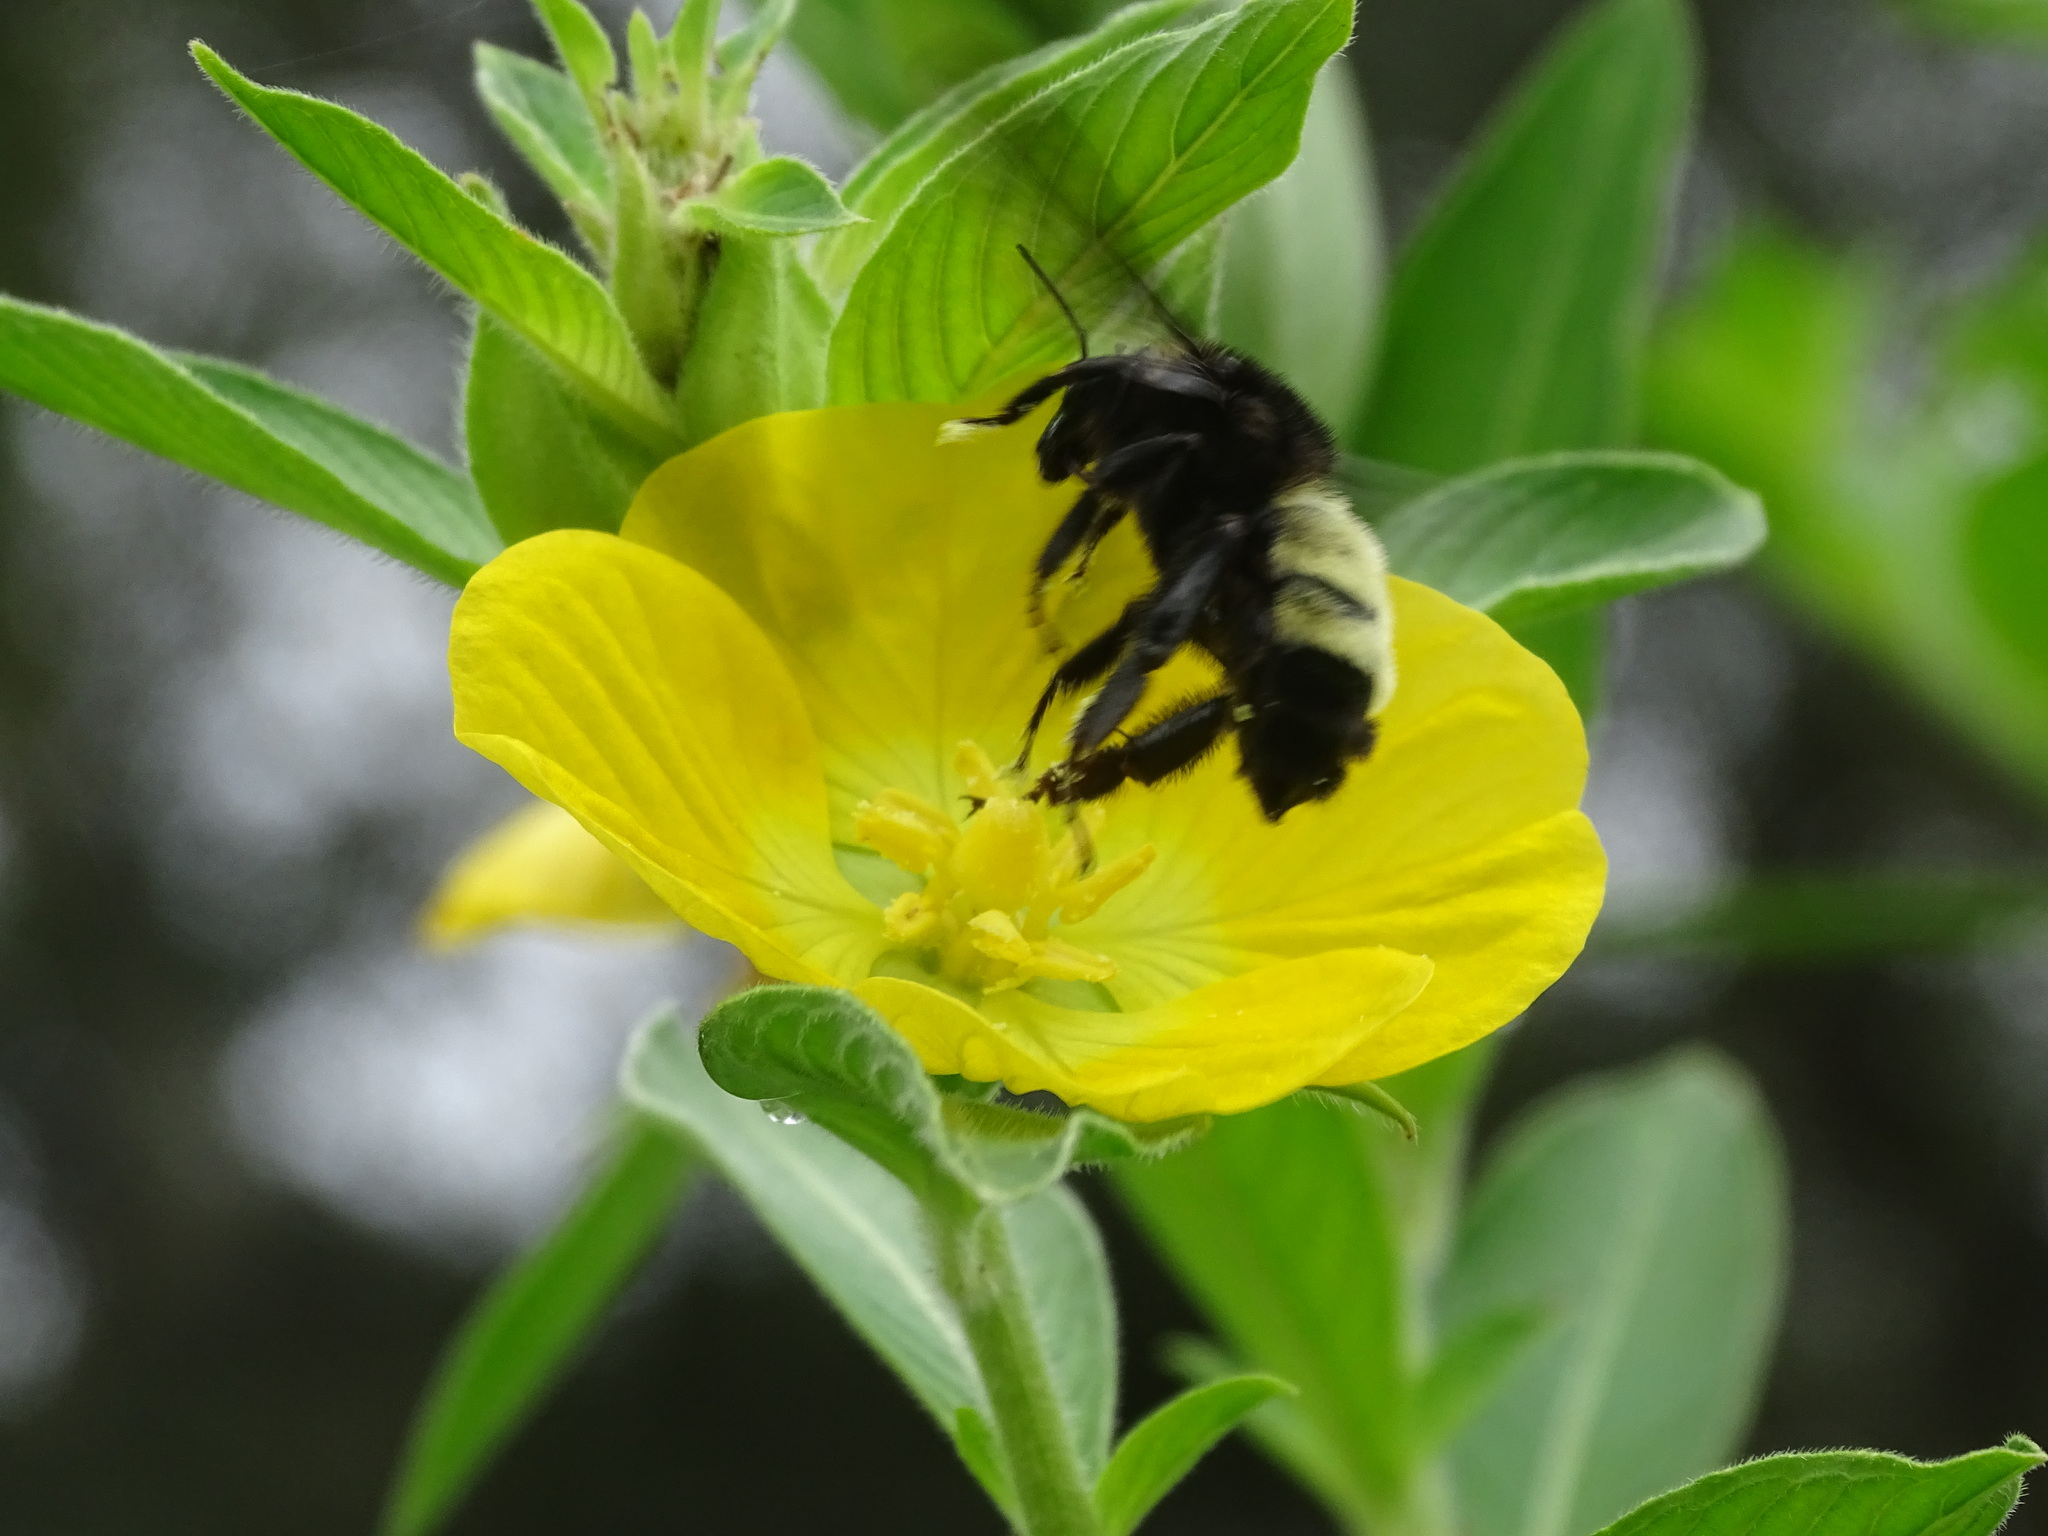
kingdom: Animalia
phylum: Arthropoda
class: Insecta
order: Hymenoptera
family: Apidae
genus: Bombus
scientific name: Bombus pensylvanicus
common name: Bumble bee
